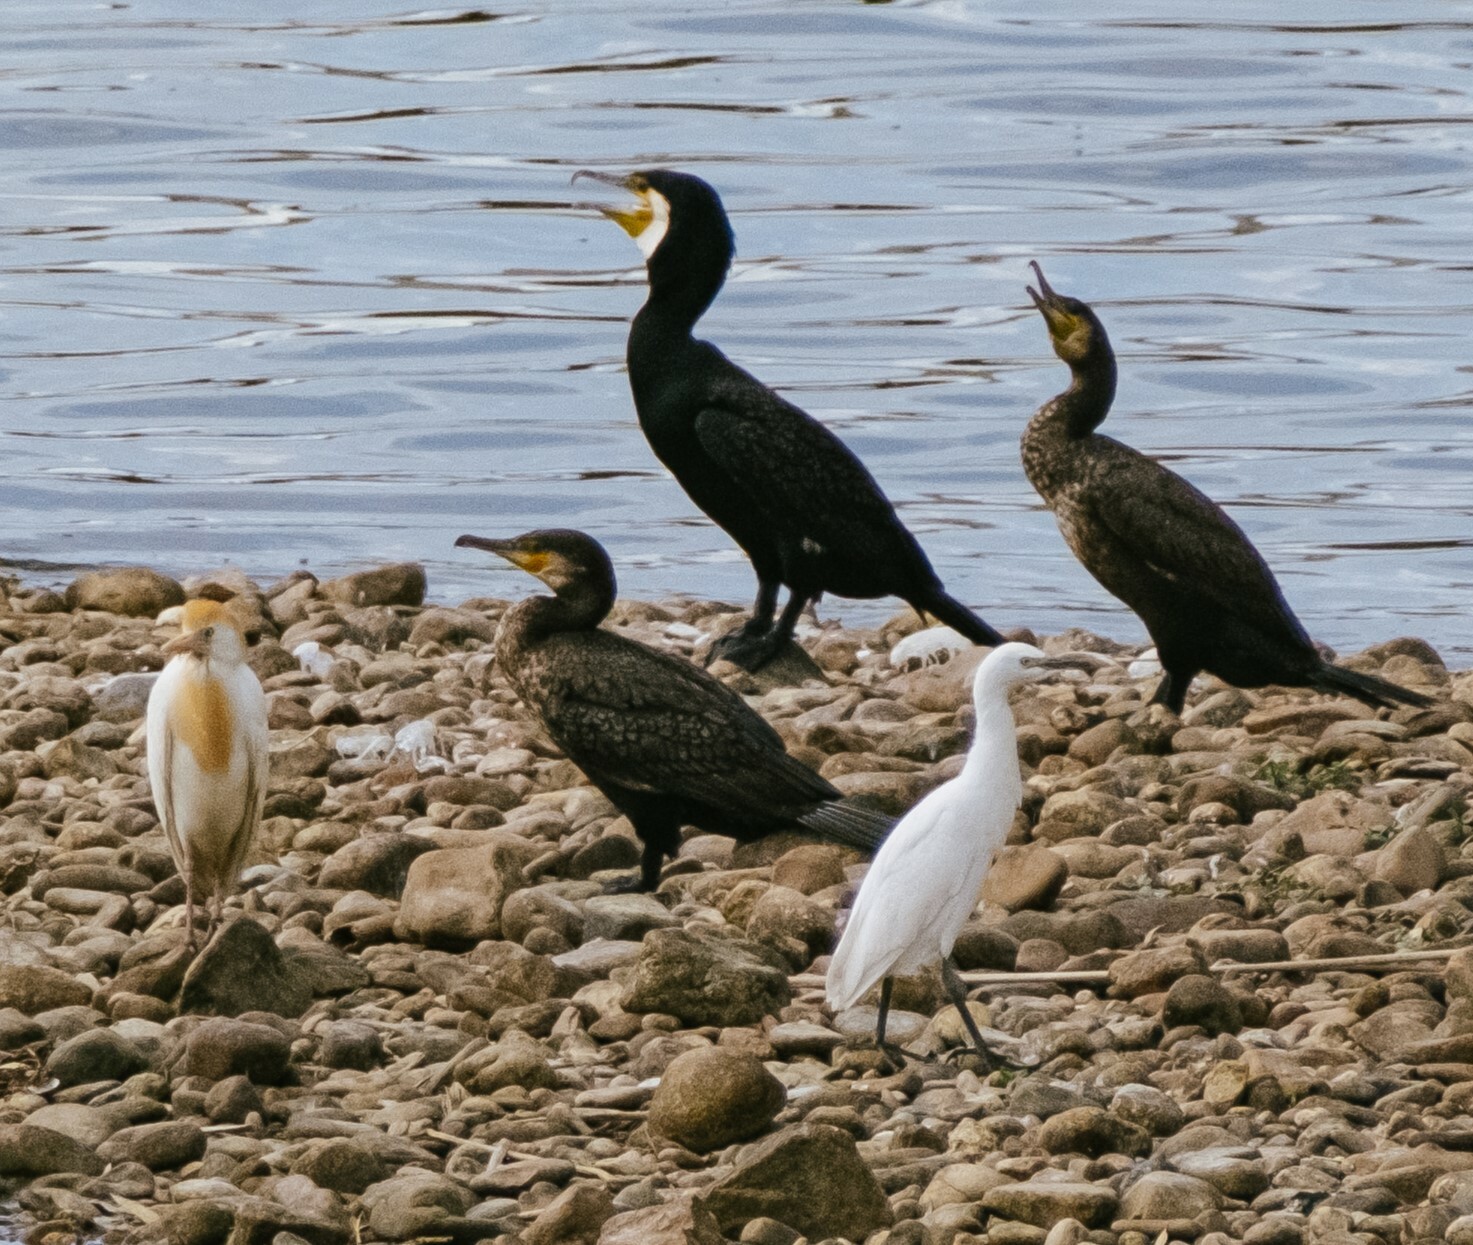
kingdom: Animalia
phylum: Chordata
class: Aves
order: Pelecaniformes
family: Ardeidae
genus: Bubulcus
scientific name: Bubulcus ibis
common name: Cattle egret
